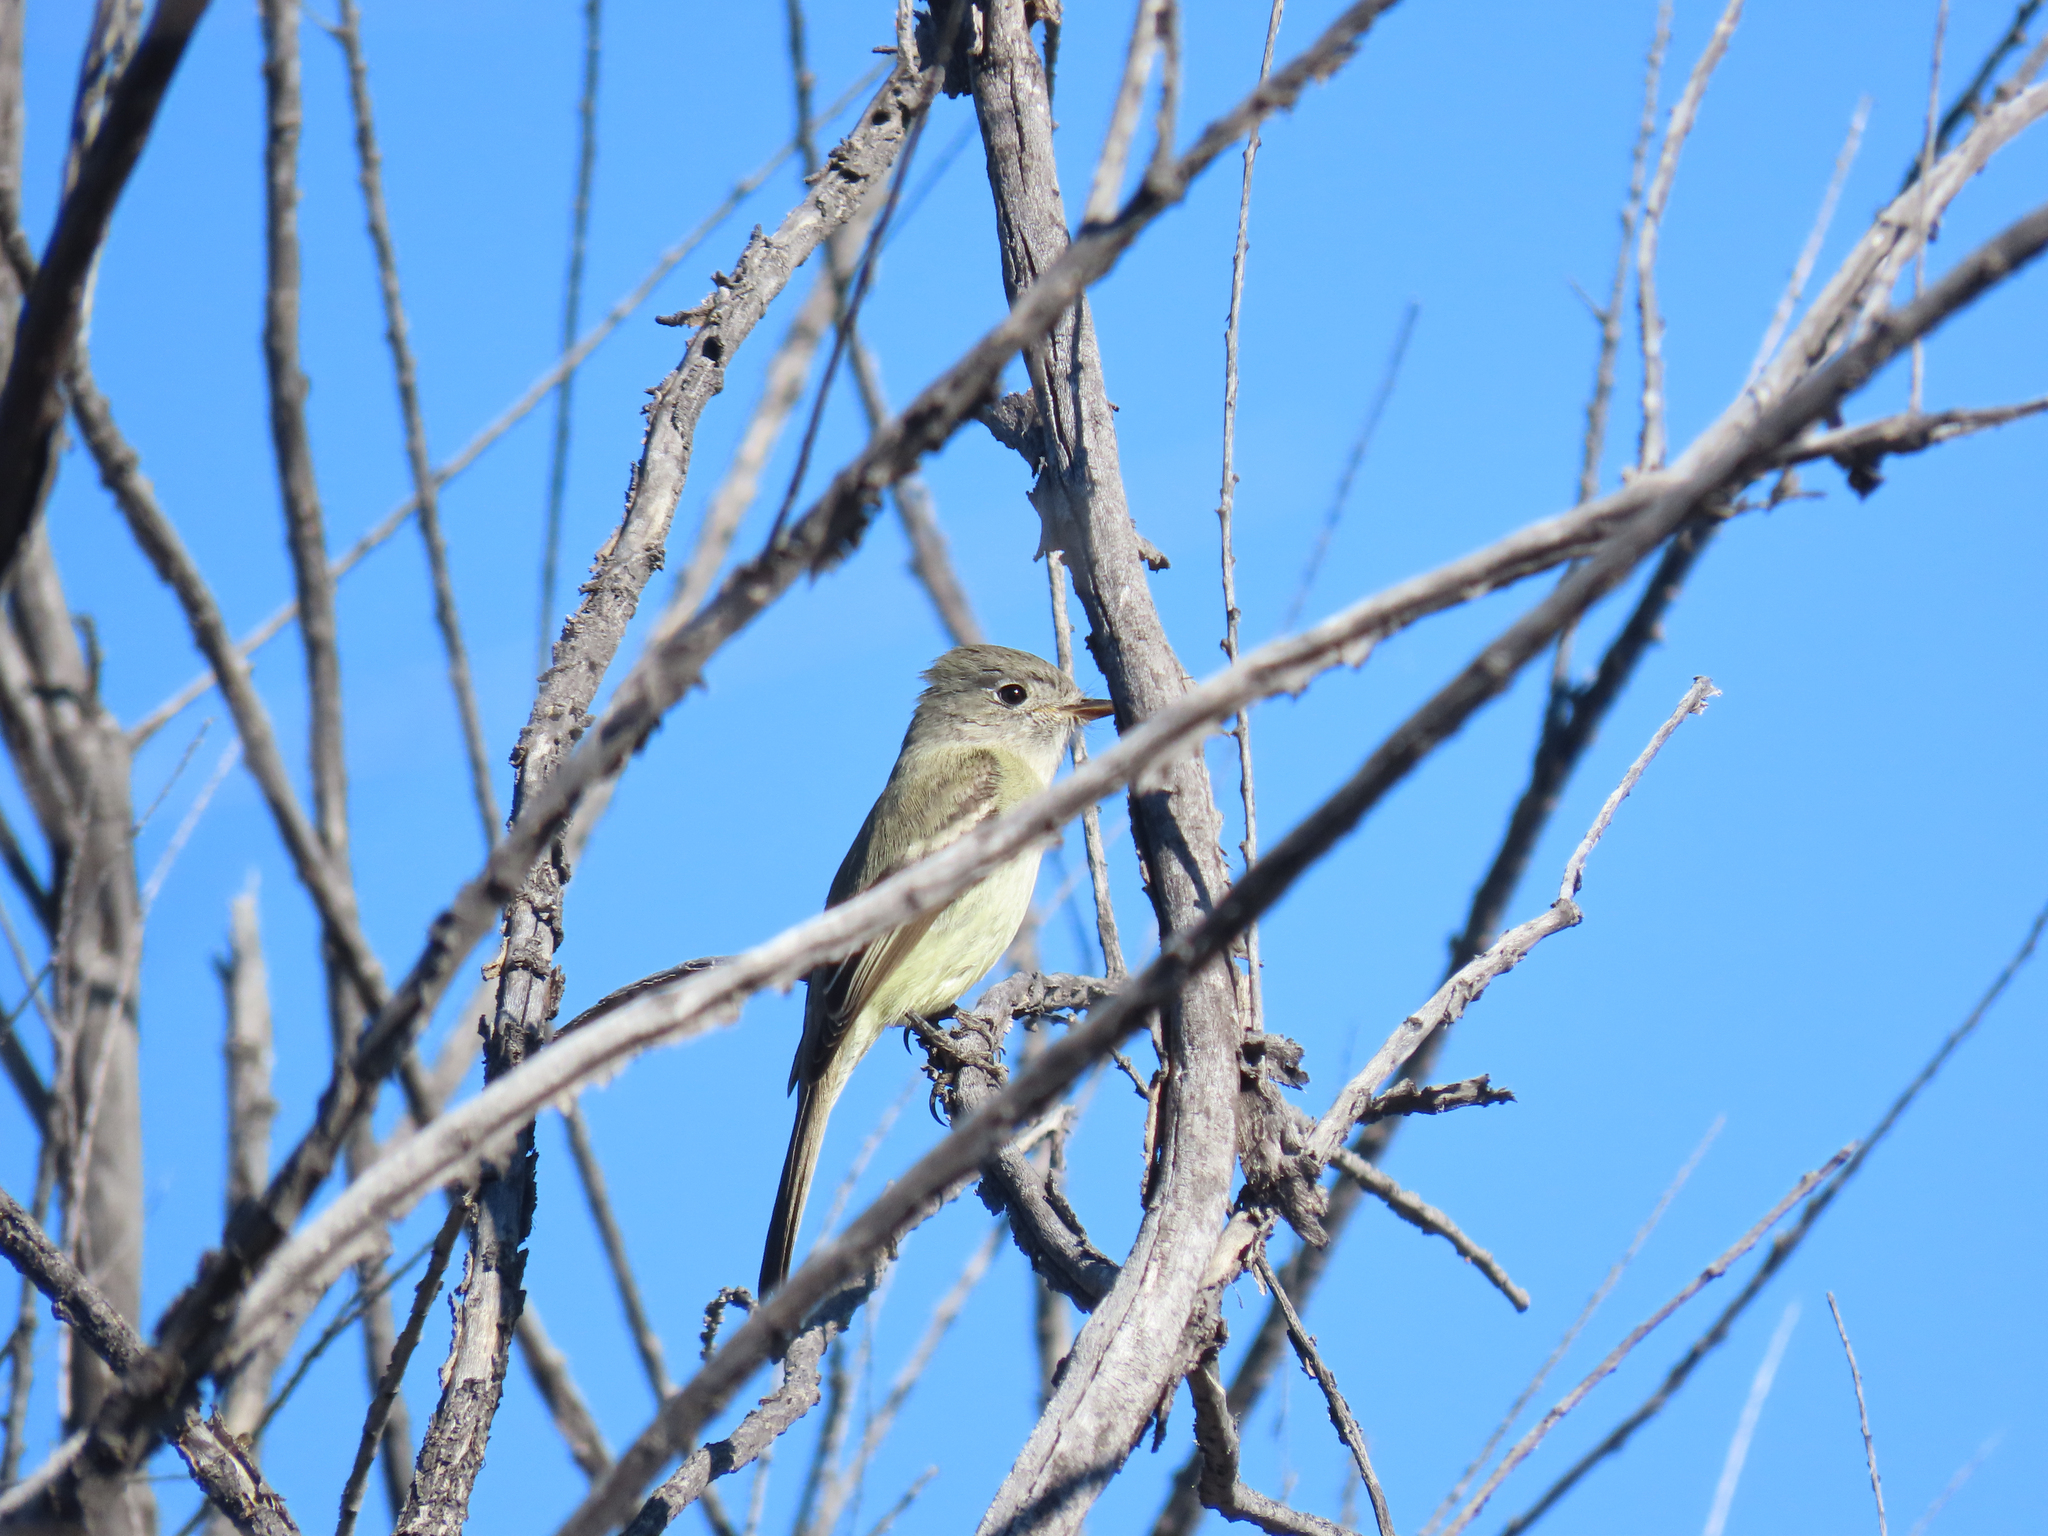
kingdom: Animalia
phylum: Chordata
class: Aves
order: Passeriformes
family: Tyrannidae
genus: Empidonax
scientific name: Empidonax oberholseri
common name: Dusky flycatcher
